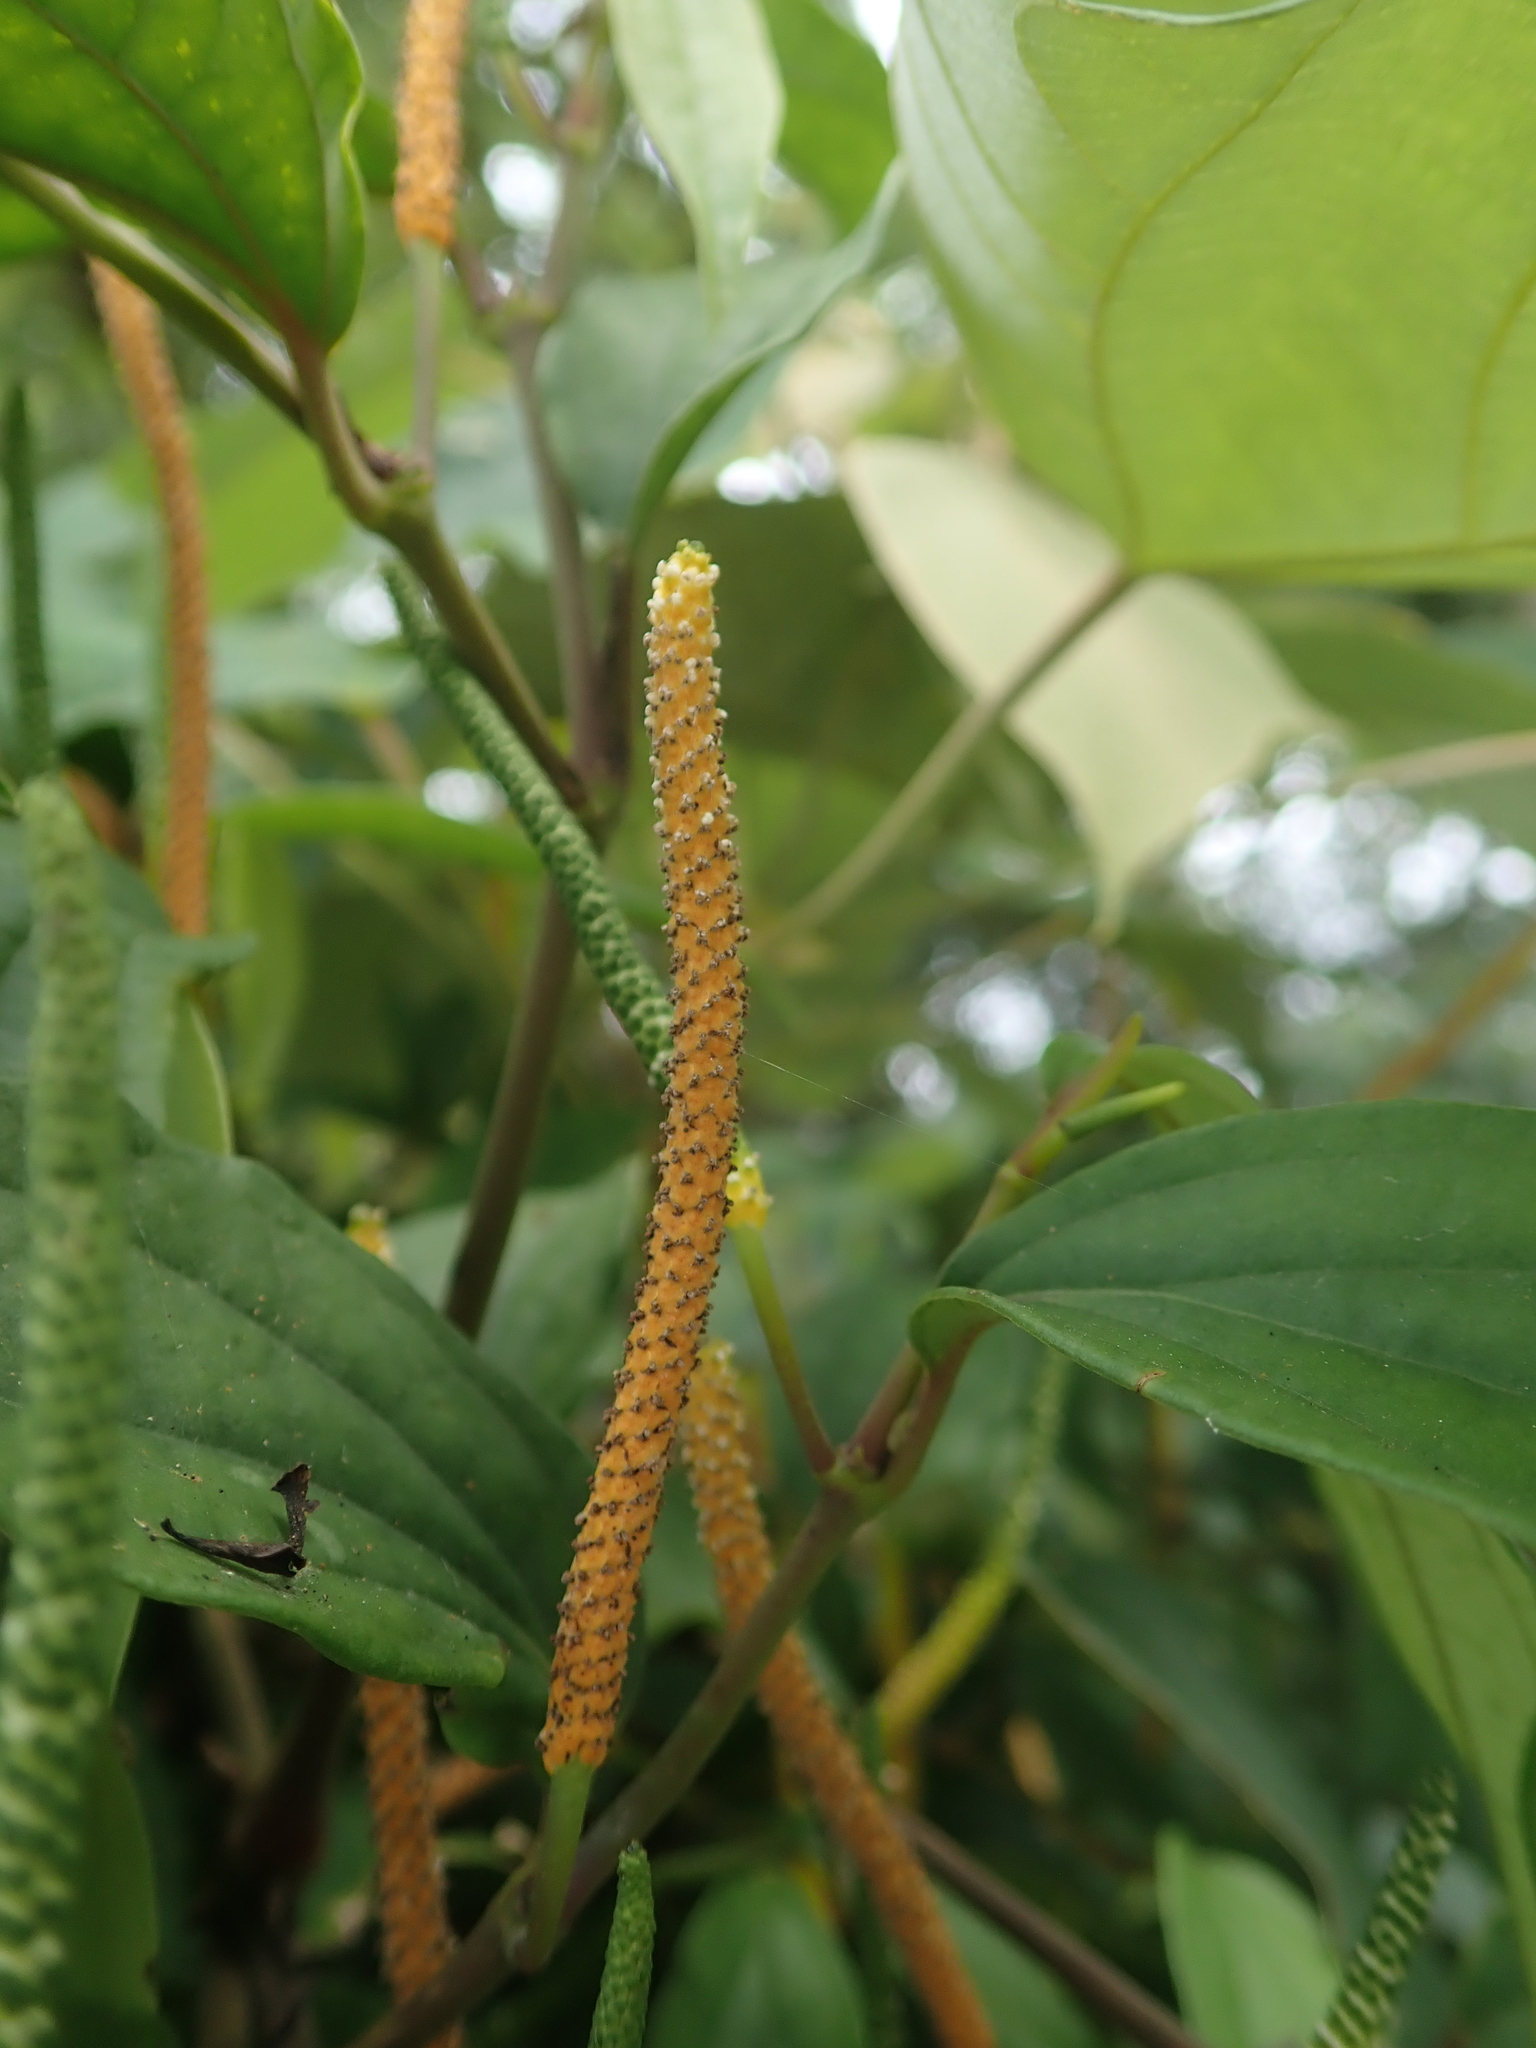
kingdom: Plantae
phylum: Tracheophyta
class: Magnoliopsida
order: Piperales
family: Piperaceae
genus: Piper
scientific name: Piper kadsura
